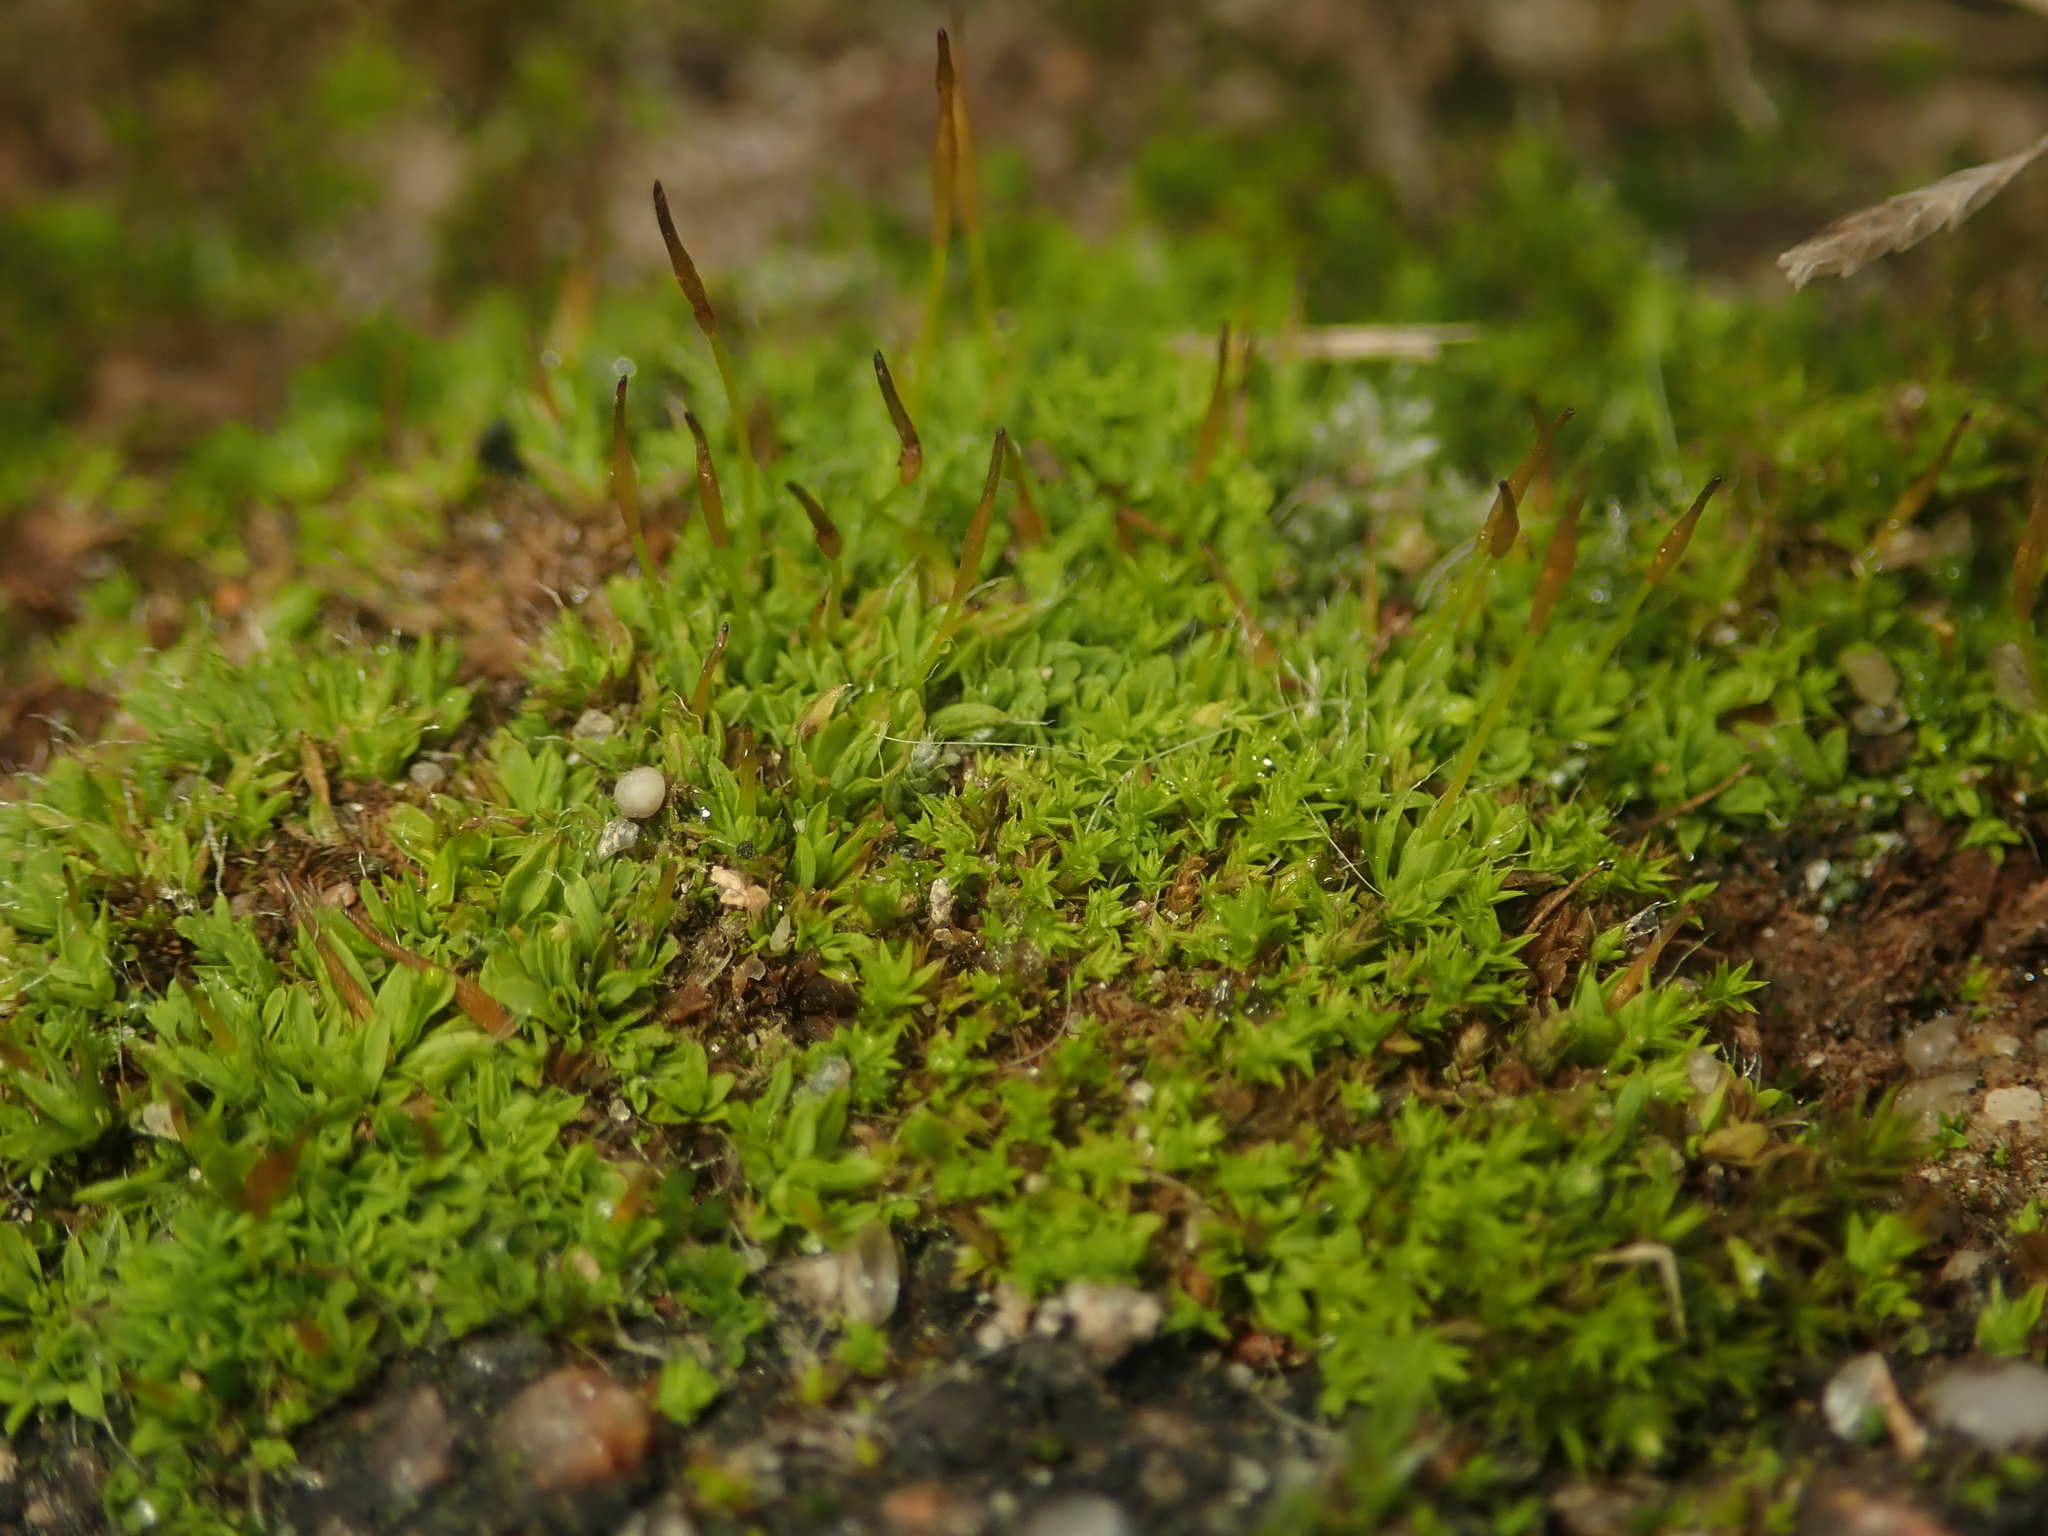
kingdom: Plantae
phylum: Bryophyta
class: Bryopsida
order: Pottiales
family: Pottiaceae
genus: Tortula
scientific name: Tortula muralis
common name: Wall screw-moss
